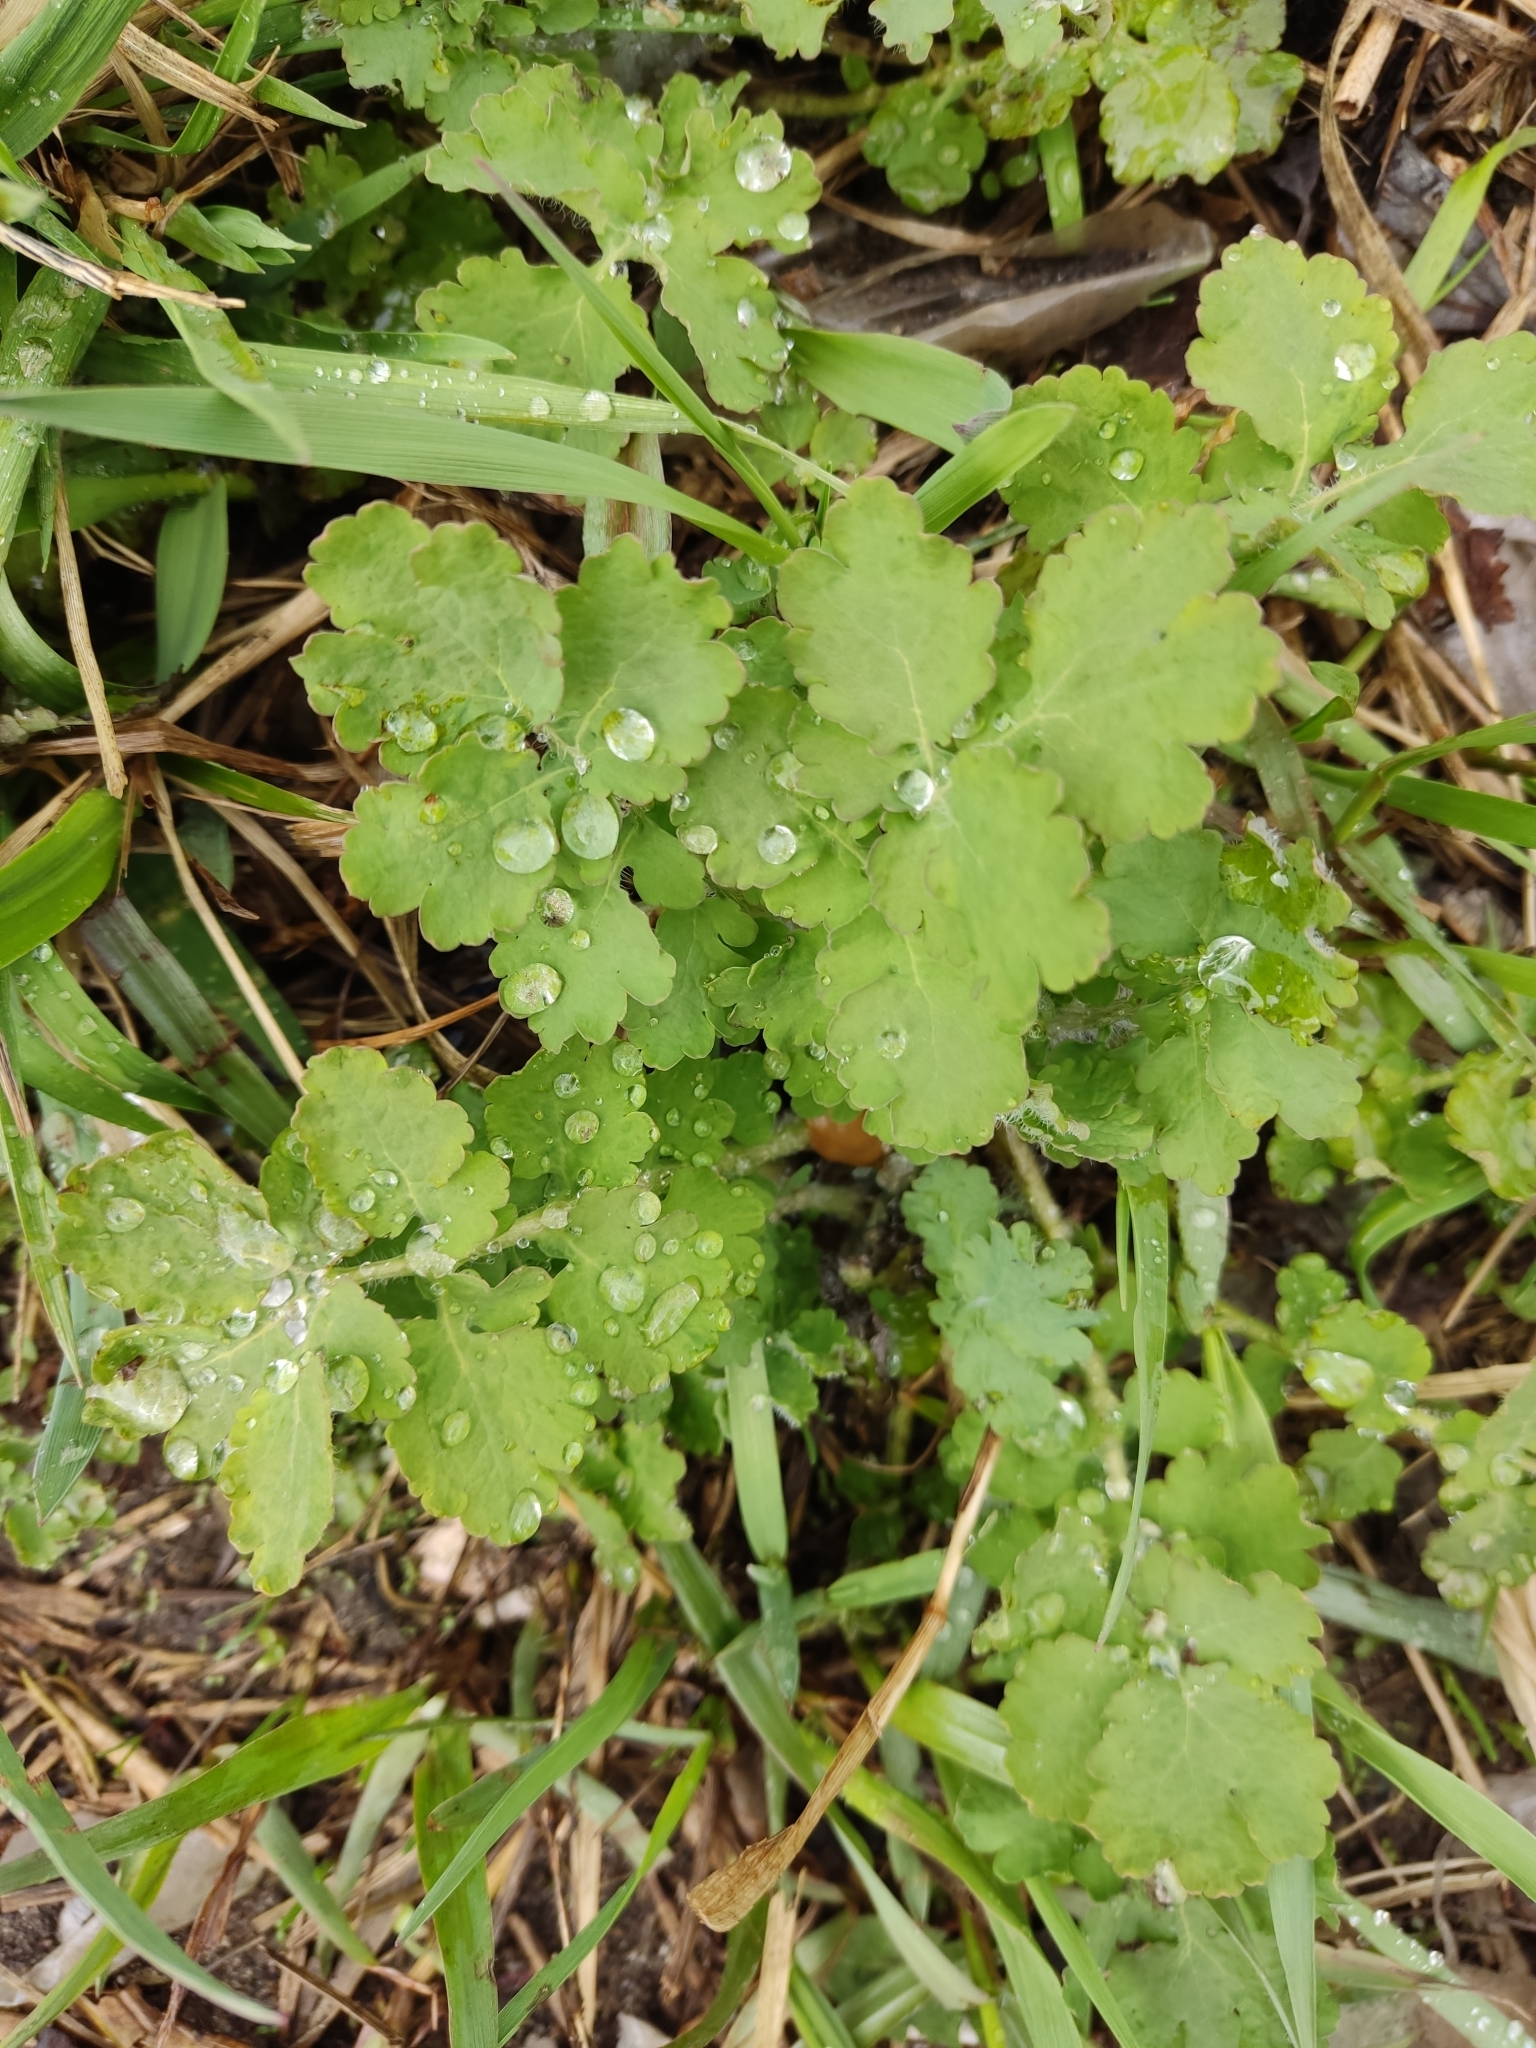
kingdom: Plantae
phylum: Tracheophyta
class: Magnoliopsida
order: Ranunculales
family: Papaveraceae
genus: Chelidonium
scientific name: Chelidonium majus
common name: Greater celandine
